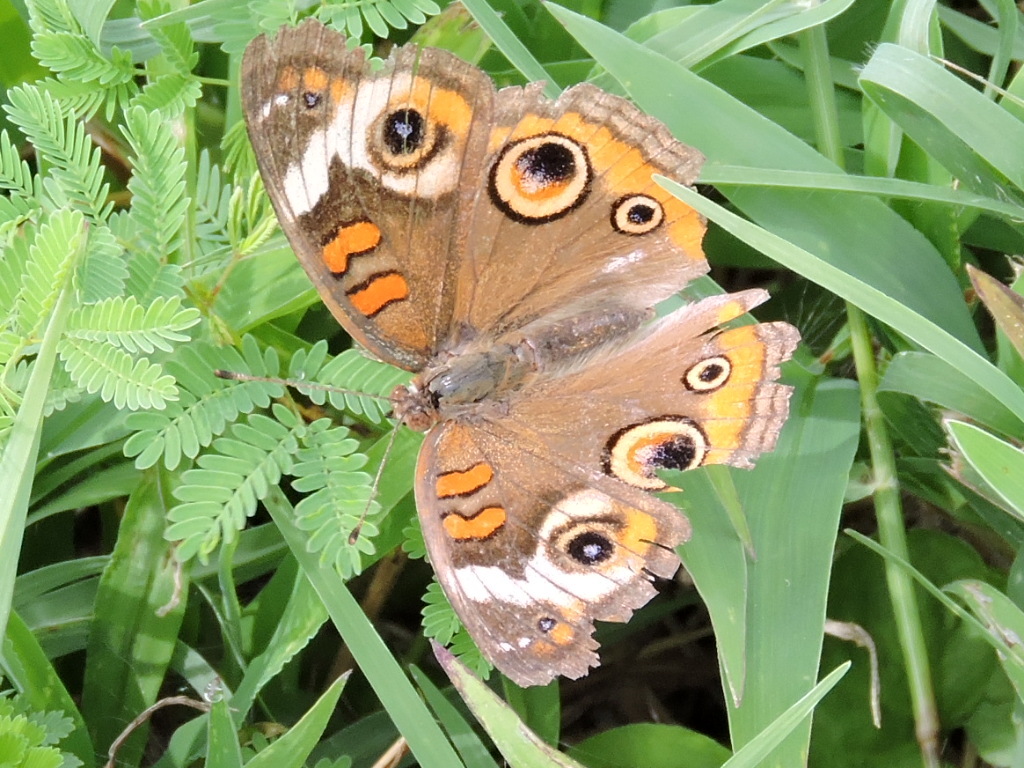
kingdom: Animalia
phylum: Arthropoda
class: Insecta
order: Lepidoptera
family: Nymphalidae
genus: Junonia
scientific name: Junonia coenia
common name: Common buckeye
